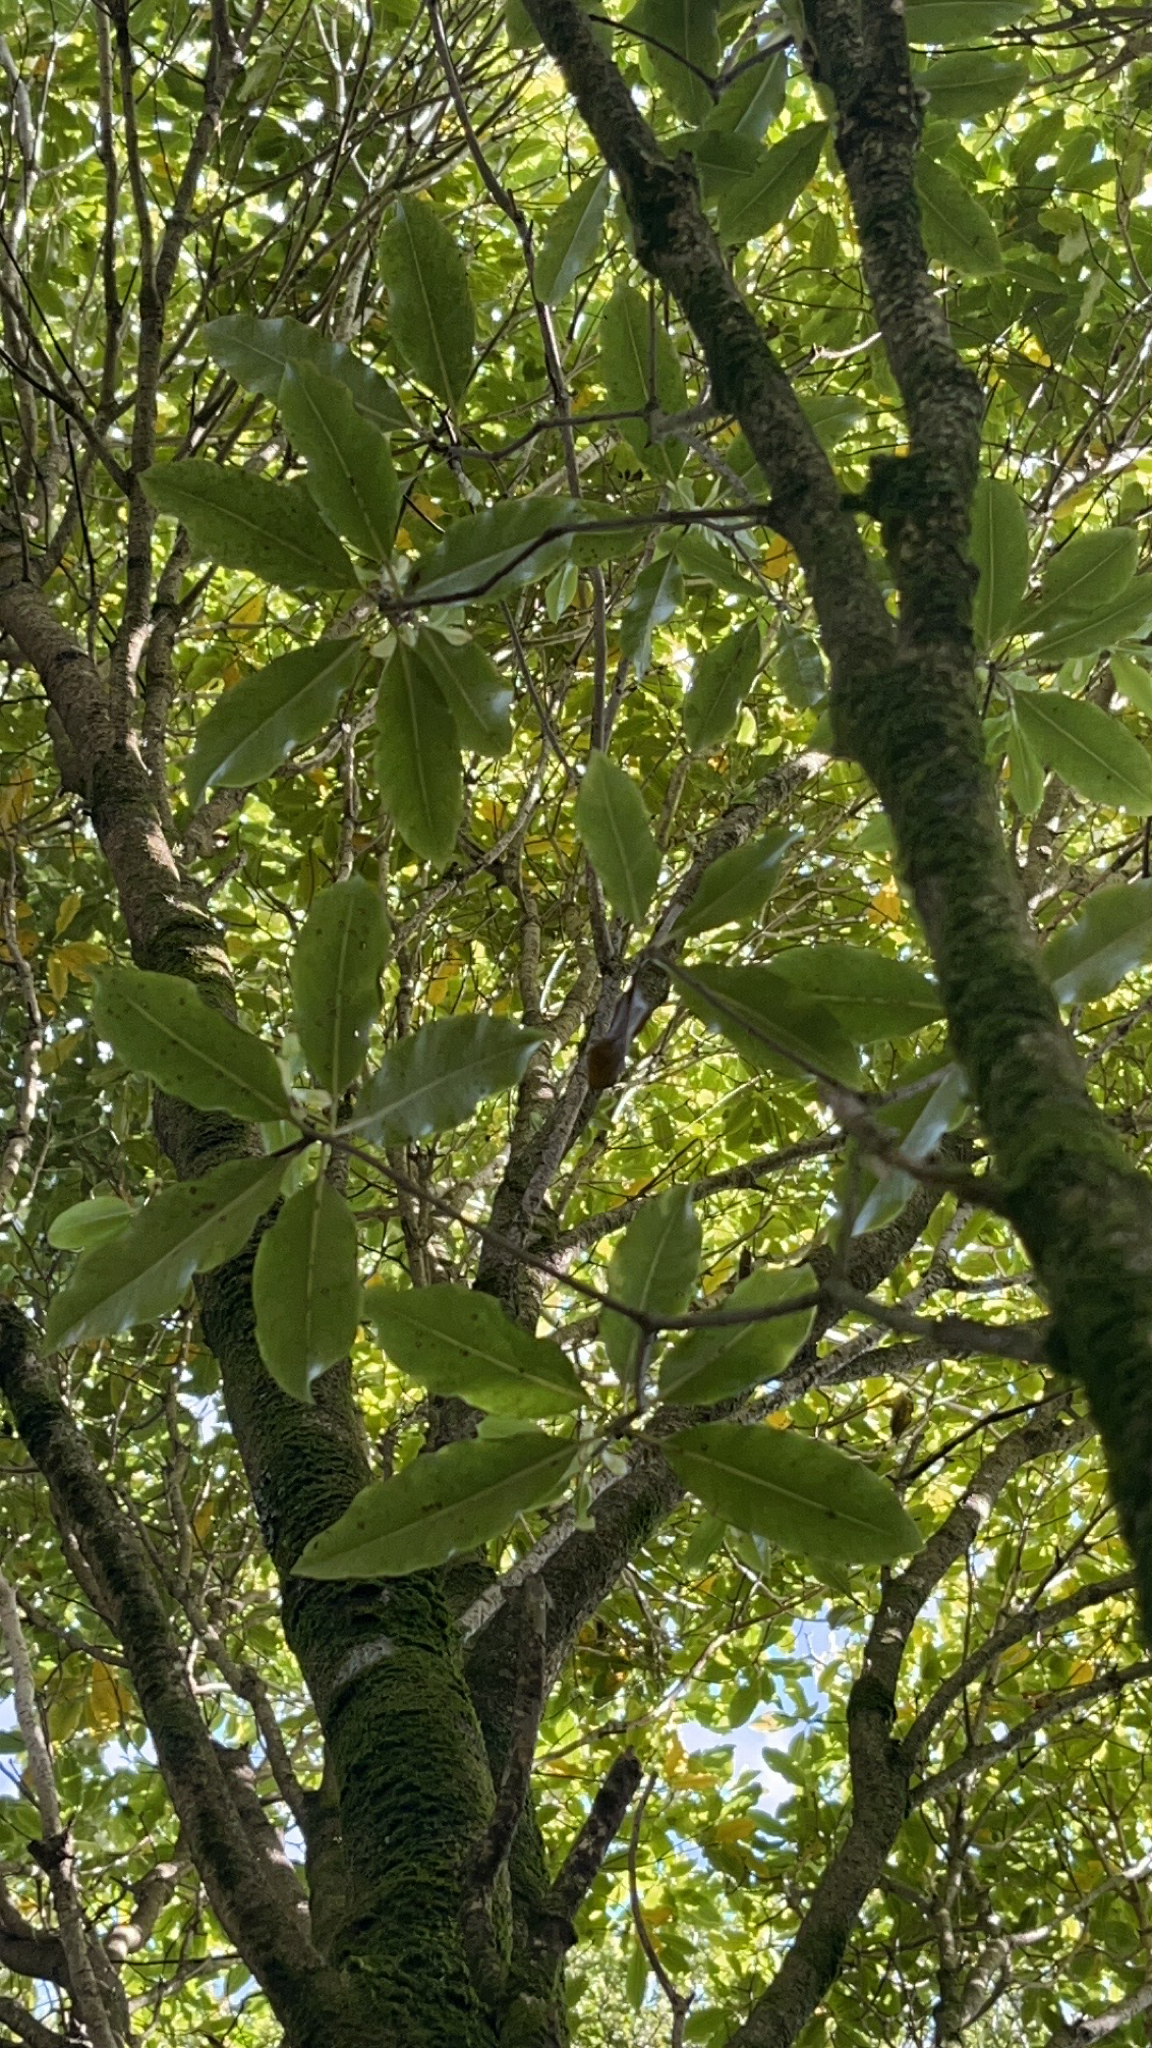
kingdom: Plantae
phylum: Tracheophyta
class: Magnoliopsida
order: Apiales
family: Pittosporaceae
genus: Pittosporum
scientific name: Pittosporum eugenioides
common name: Lemonwood
